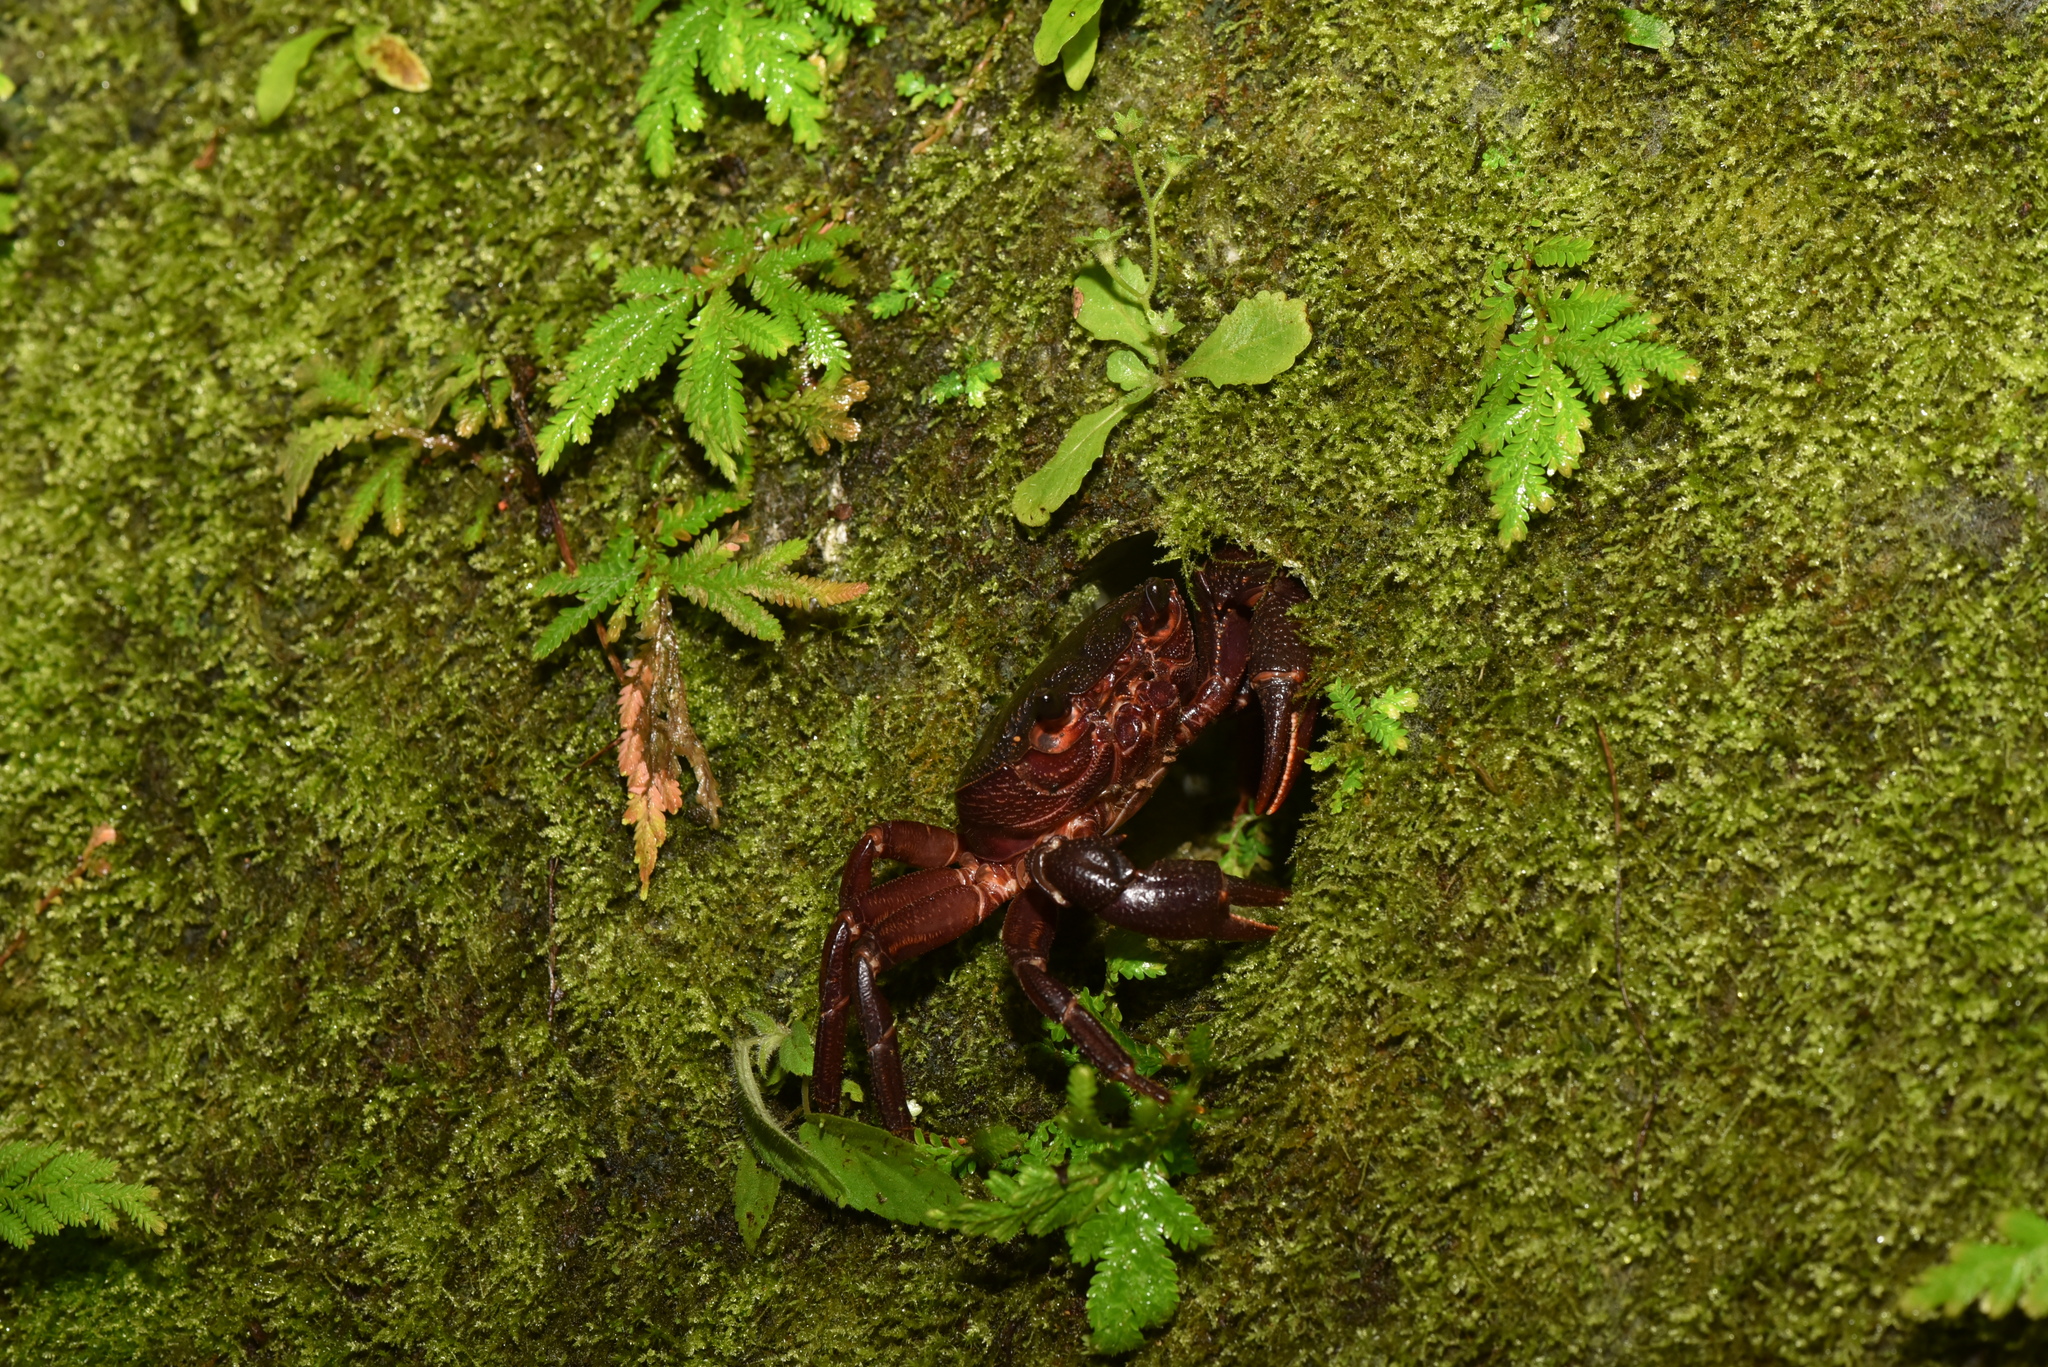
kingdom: Animalia
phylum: Arthropoda
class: Malacostraca
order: Decapoda
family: Potamidae
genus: Candidiopotamon
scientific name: Candidiopotamon rathbuni
